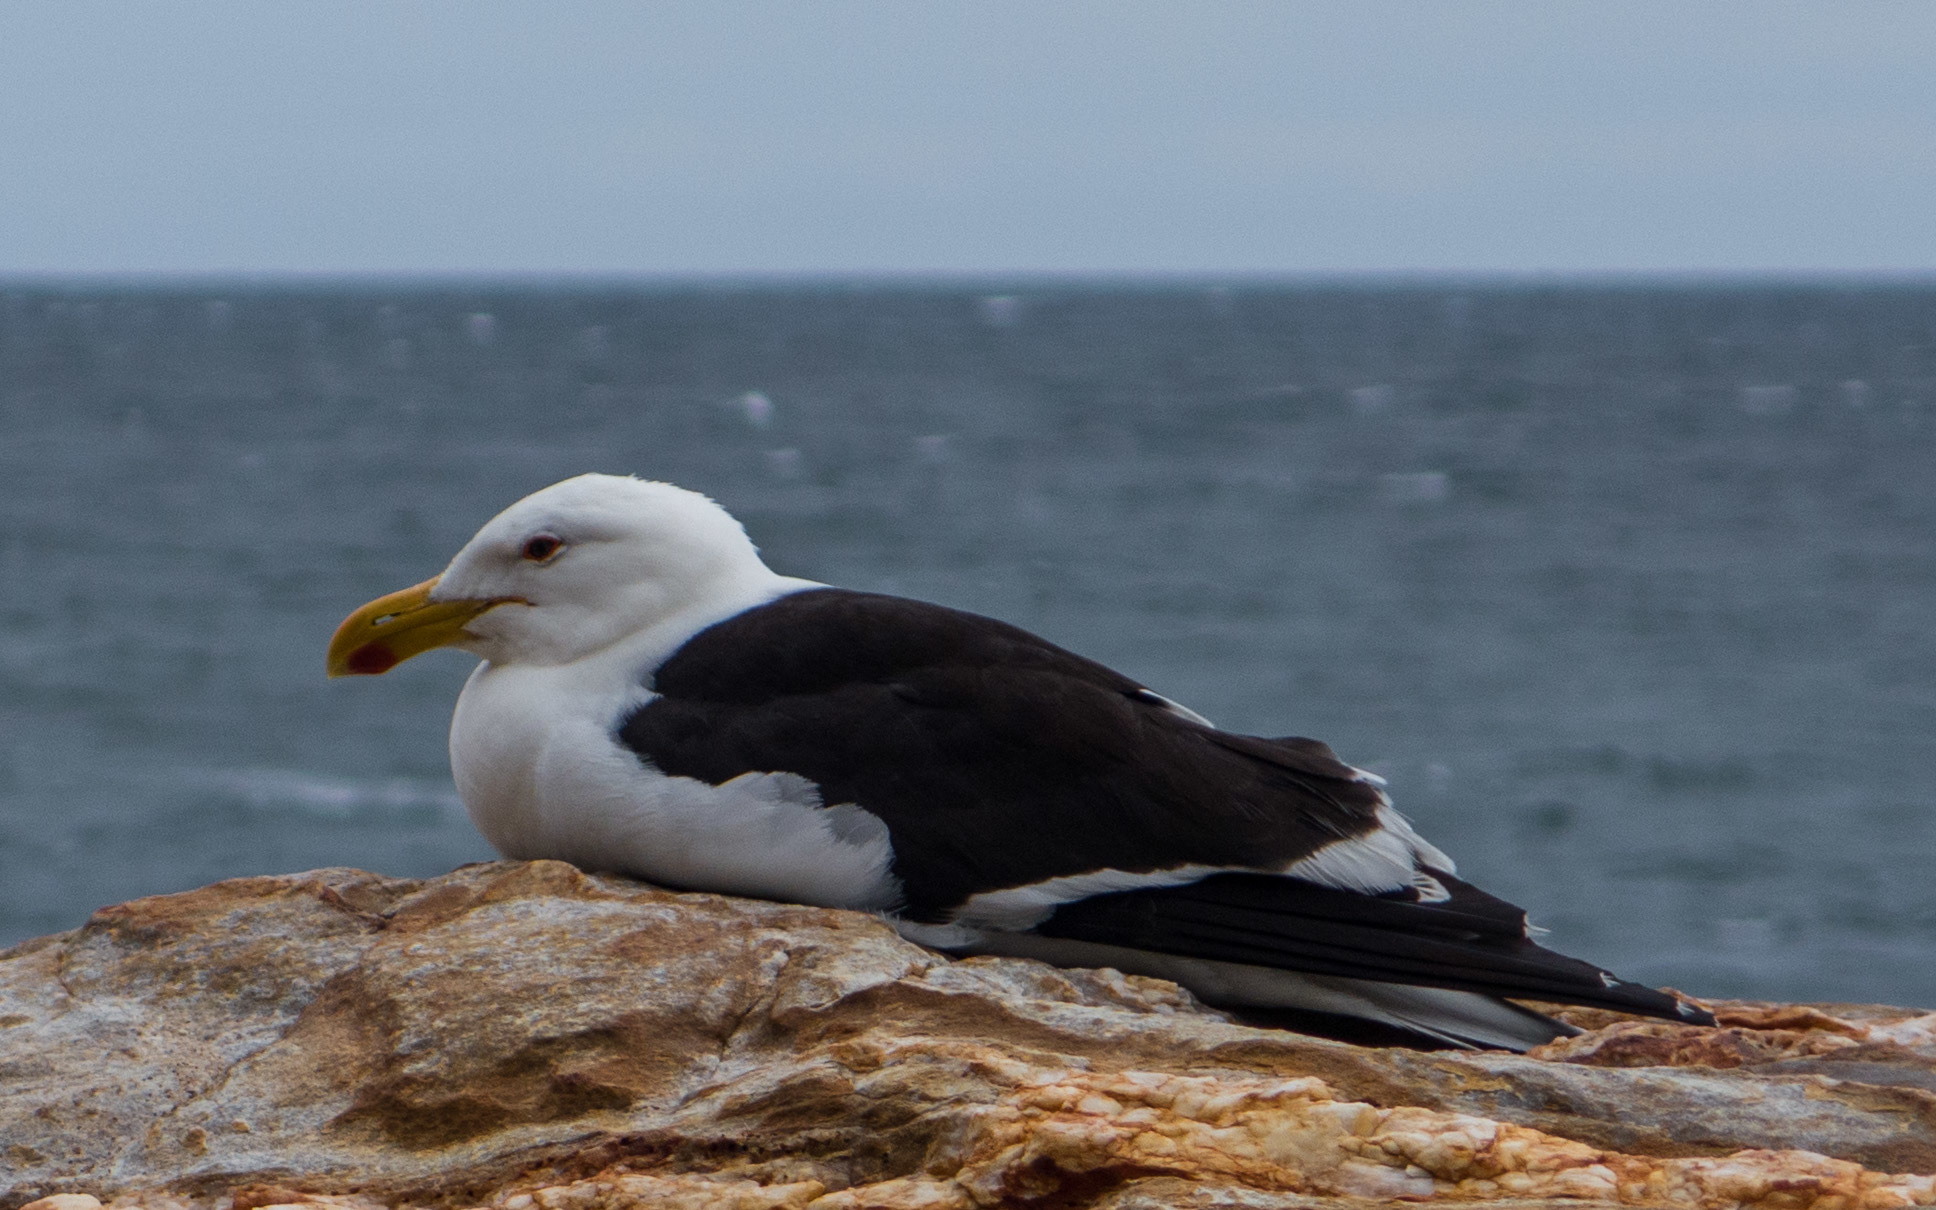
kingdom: Animalia
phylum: Chordata
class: Aves
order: Charadriiformes
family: Laridae
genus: Larus
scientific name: Larus dominicanus
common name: Kelp gull
